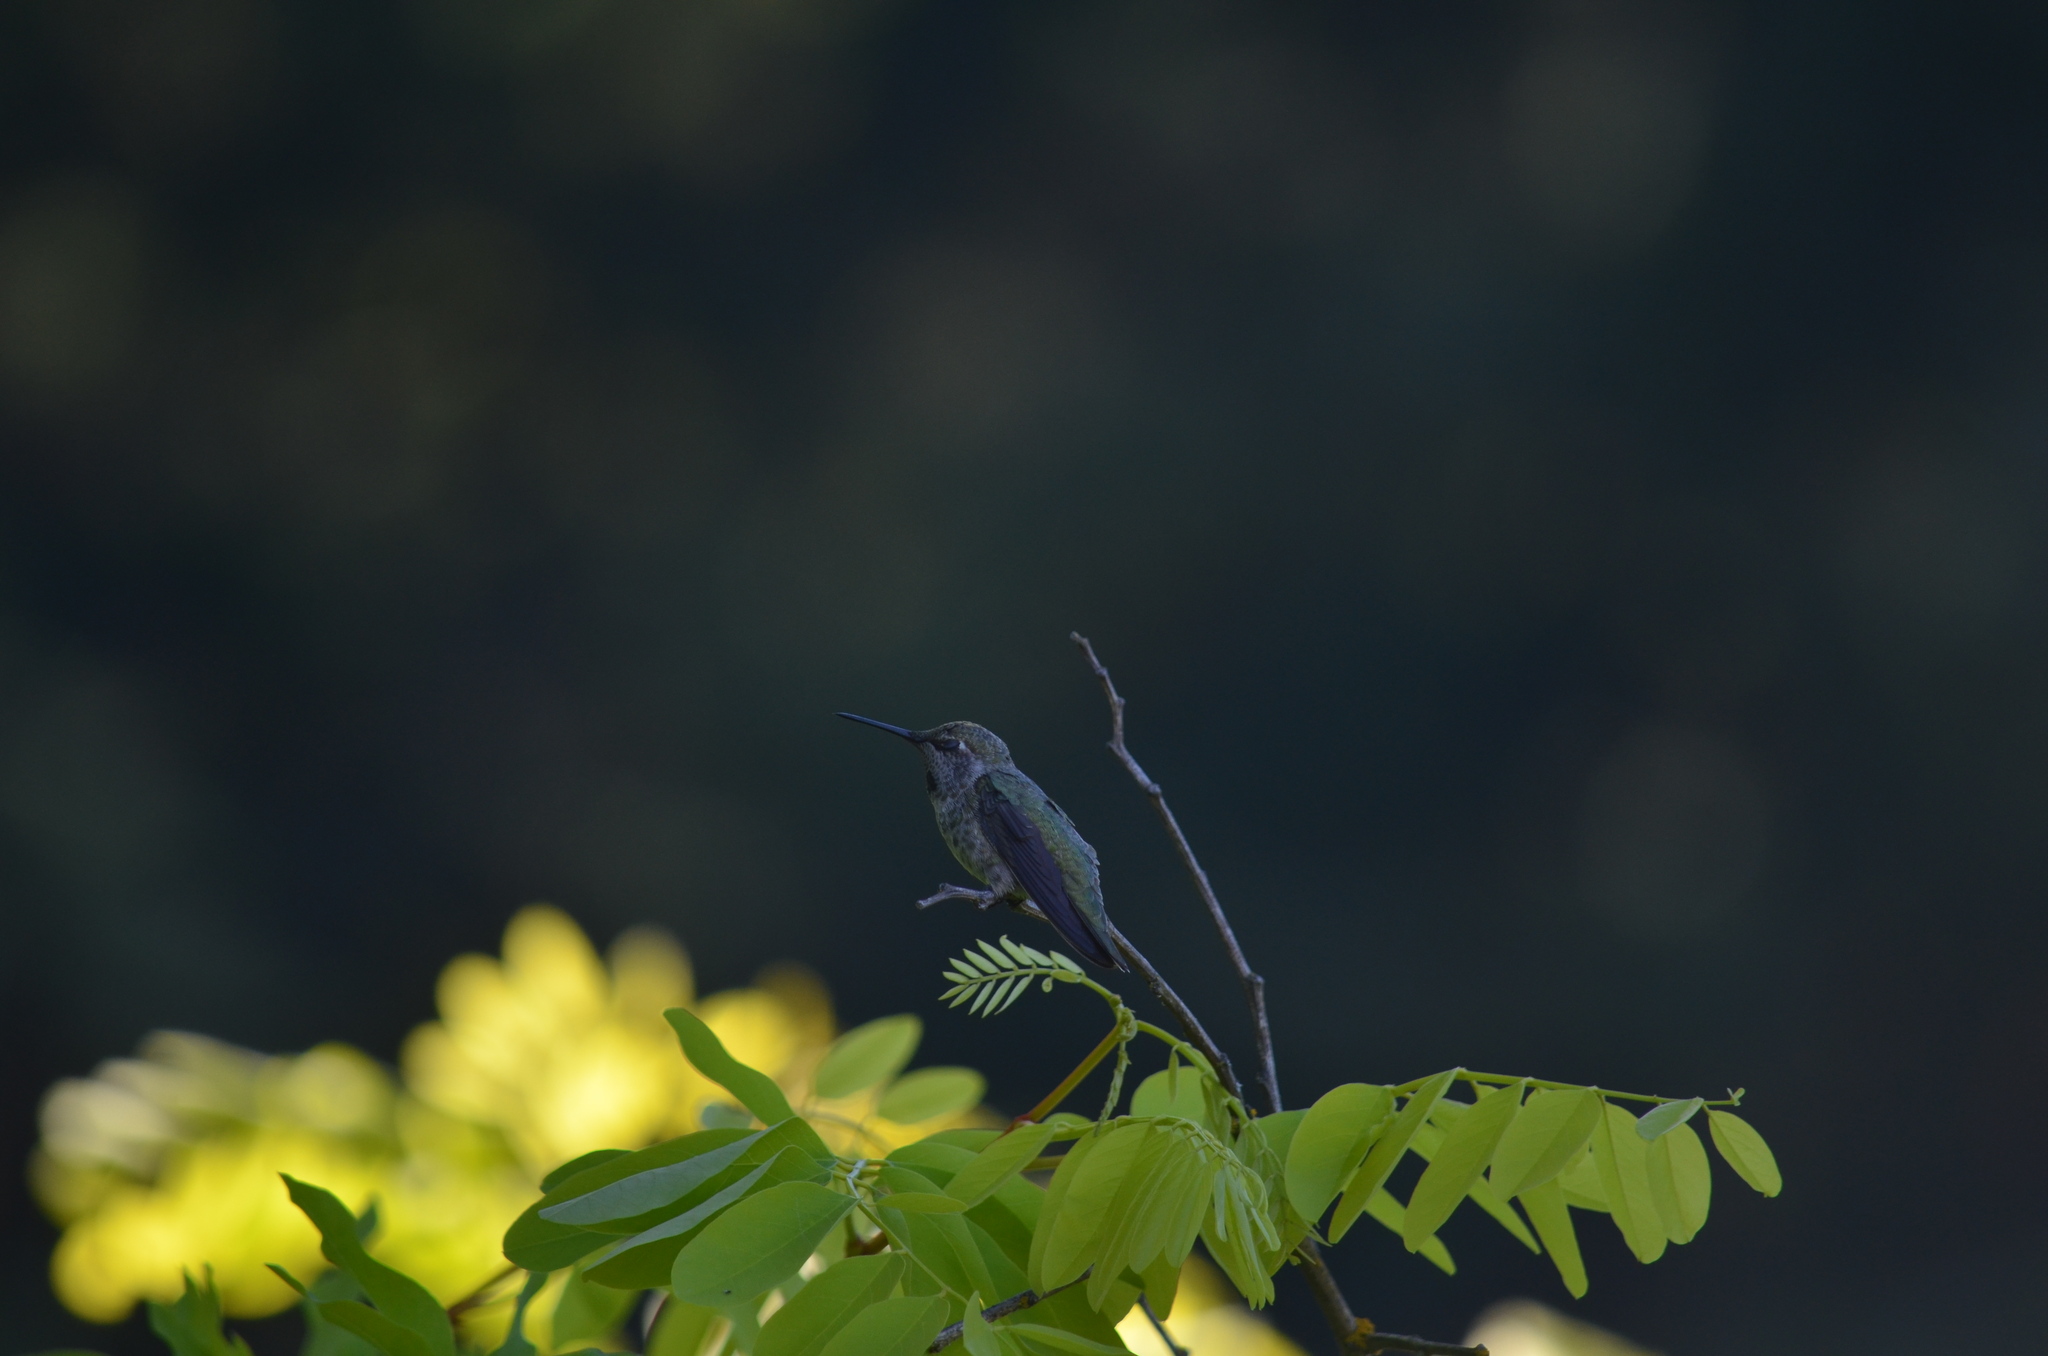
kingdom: Animalia
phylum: Chordata
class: Aves
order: Apodiformes
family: Trochilidae
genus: Calypte
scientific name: Calypte anna
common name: Anna's hummingbird
